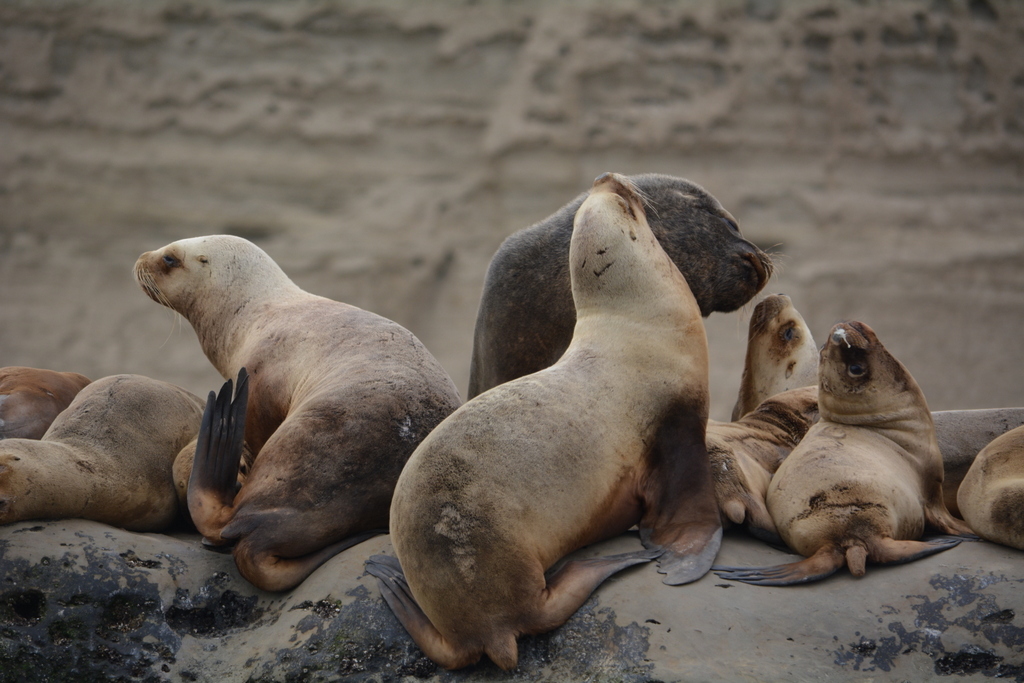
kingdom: Animalia
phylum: Chordata
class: Mammalia
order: Carnivora
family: Otariidae
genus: Otaria
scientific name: Otaria byronia
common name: South american sea lion
